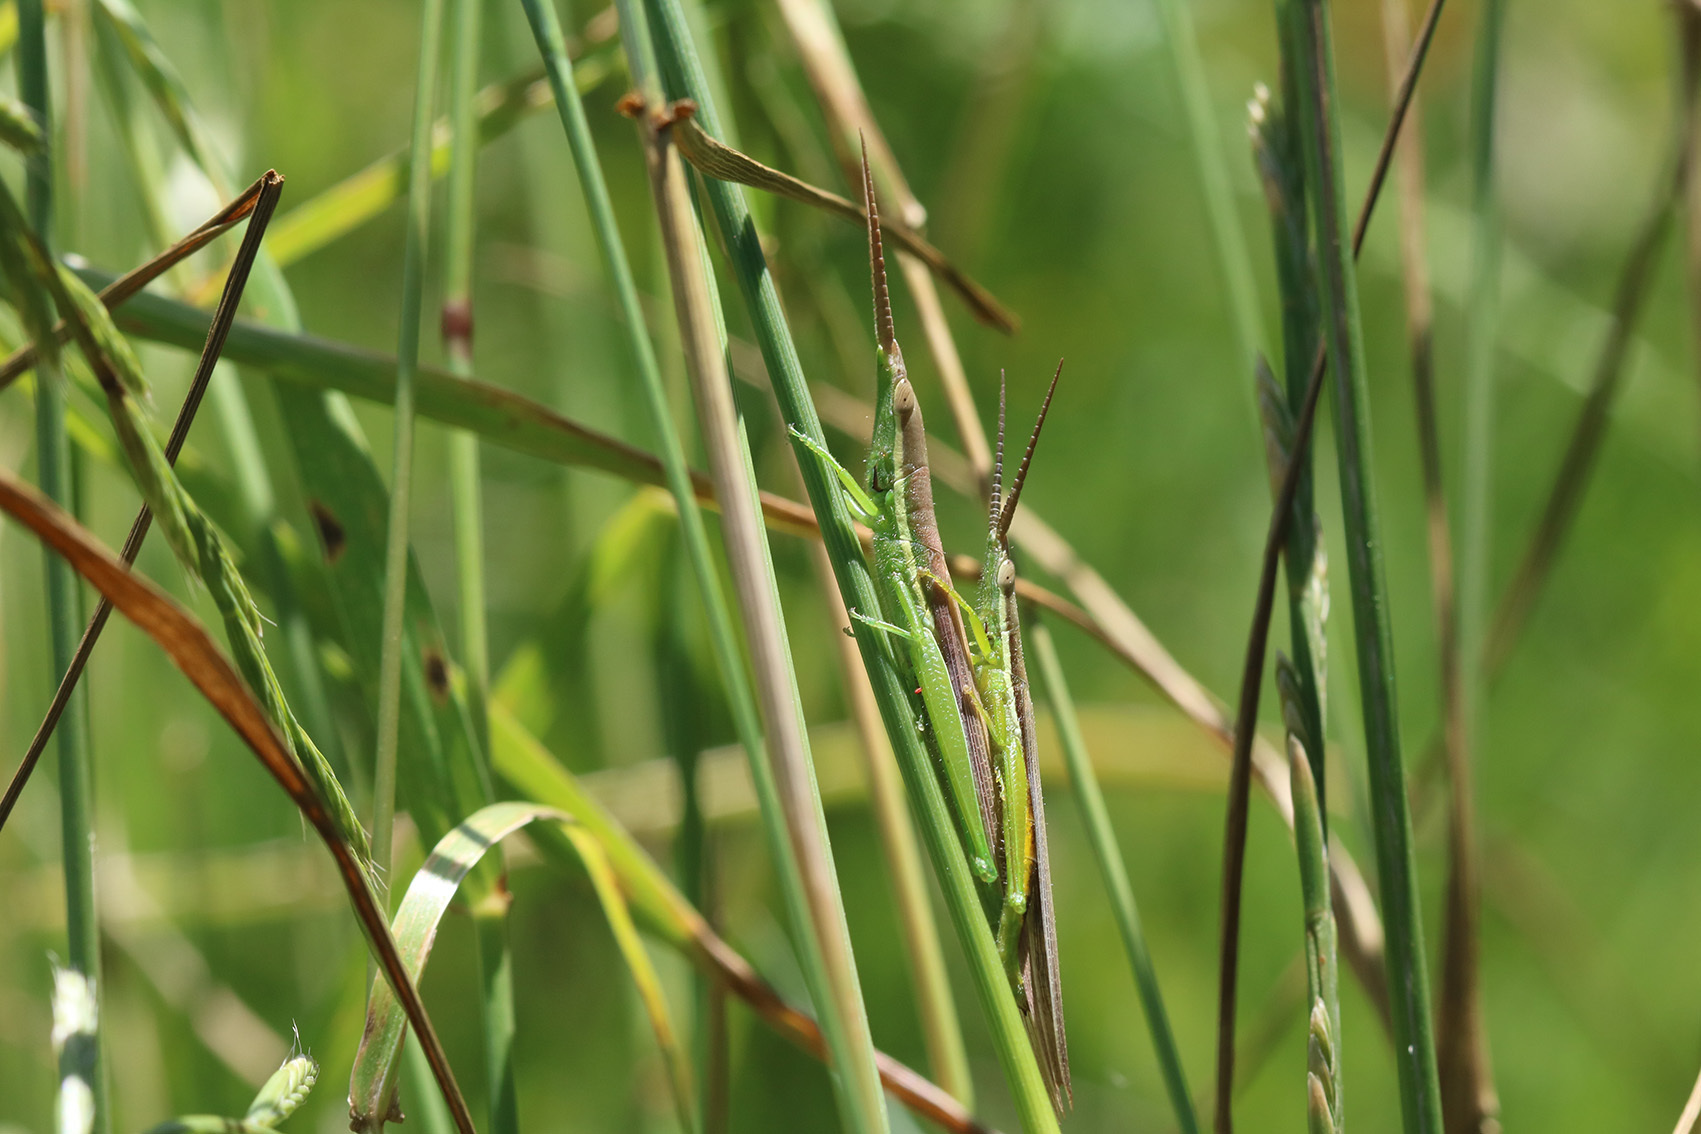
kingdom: Animalia
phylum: Arthropoda
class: Insecta
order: Orthoptera
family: Acrididae
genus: Leptysma
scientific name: Leptysma argentina
